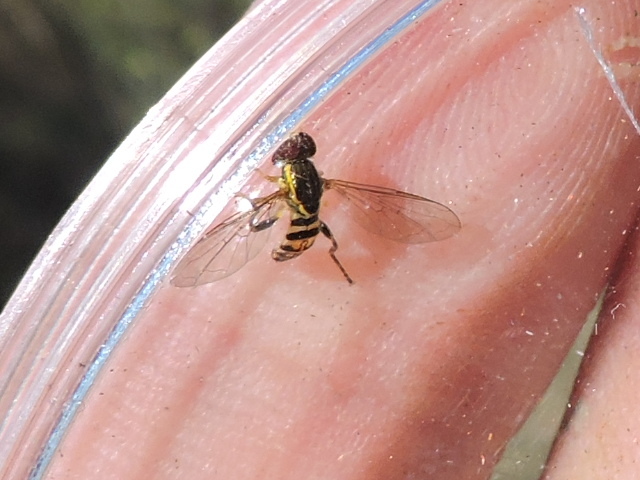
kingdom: Animalia
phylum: Arthropoda
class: Insecta
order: Diptera
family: Syrphidae
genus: Toxomerus
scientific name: Toxomerus geminatus
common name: Eastern calligrapher
